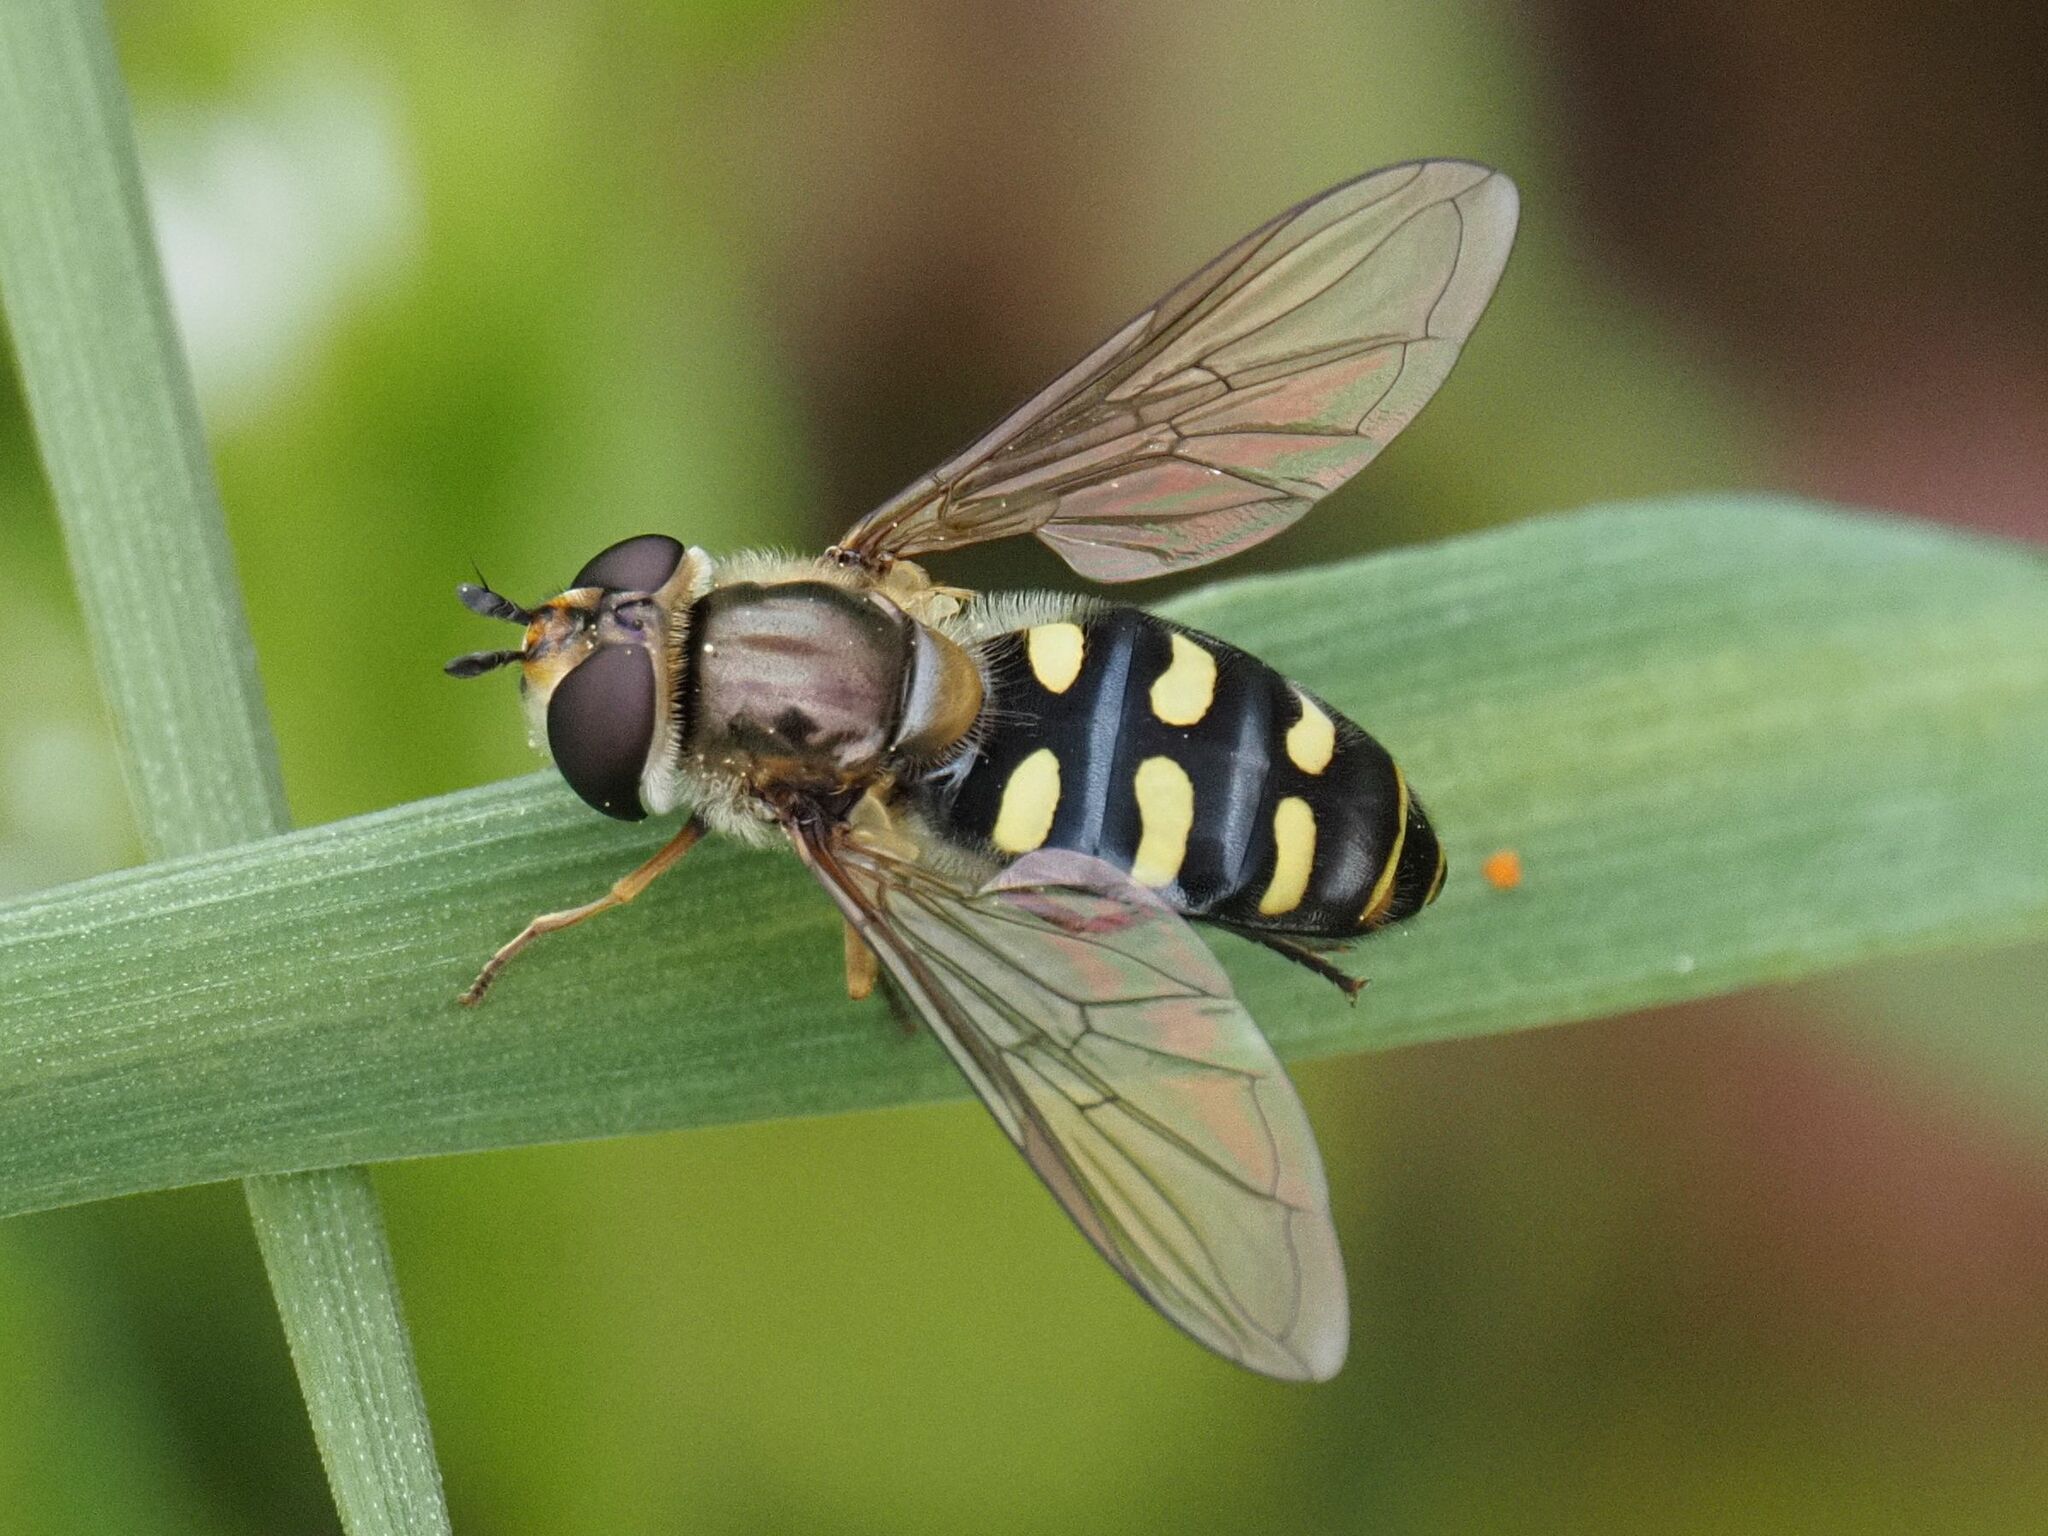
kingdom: Animalia
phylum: Arthropoda
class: Insecta
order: Diptera
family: Syrphidae
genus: Eupeodes
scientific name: Eupeodes luniger
